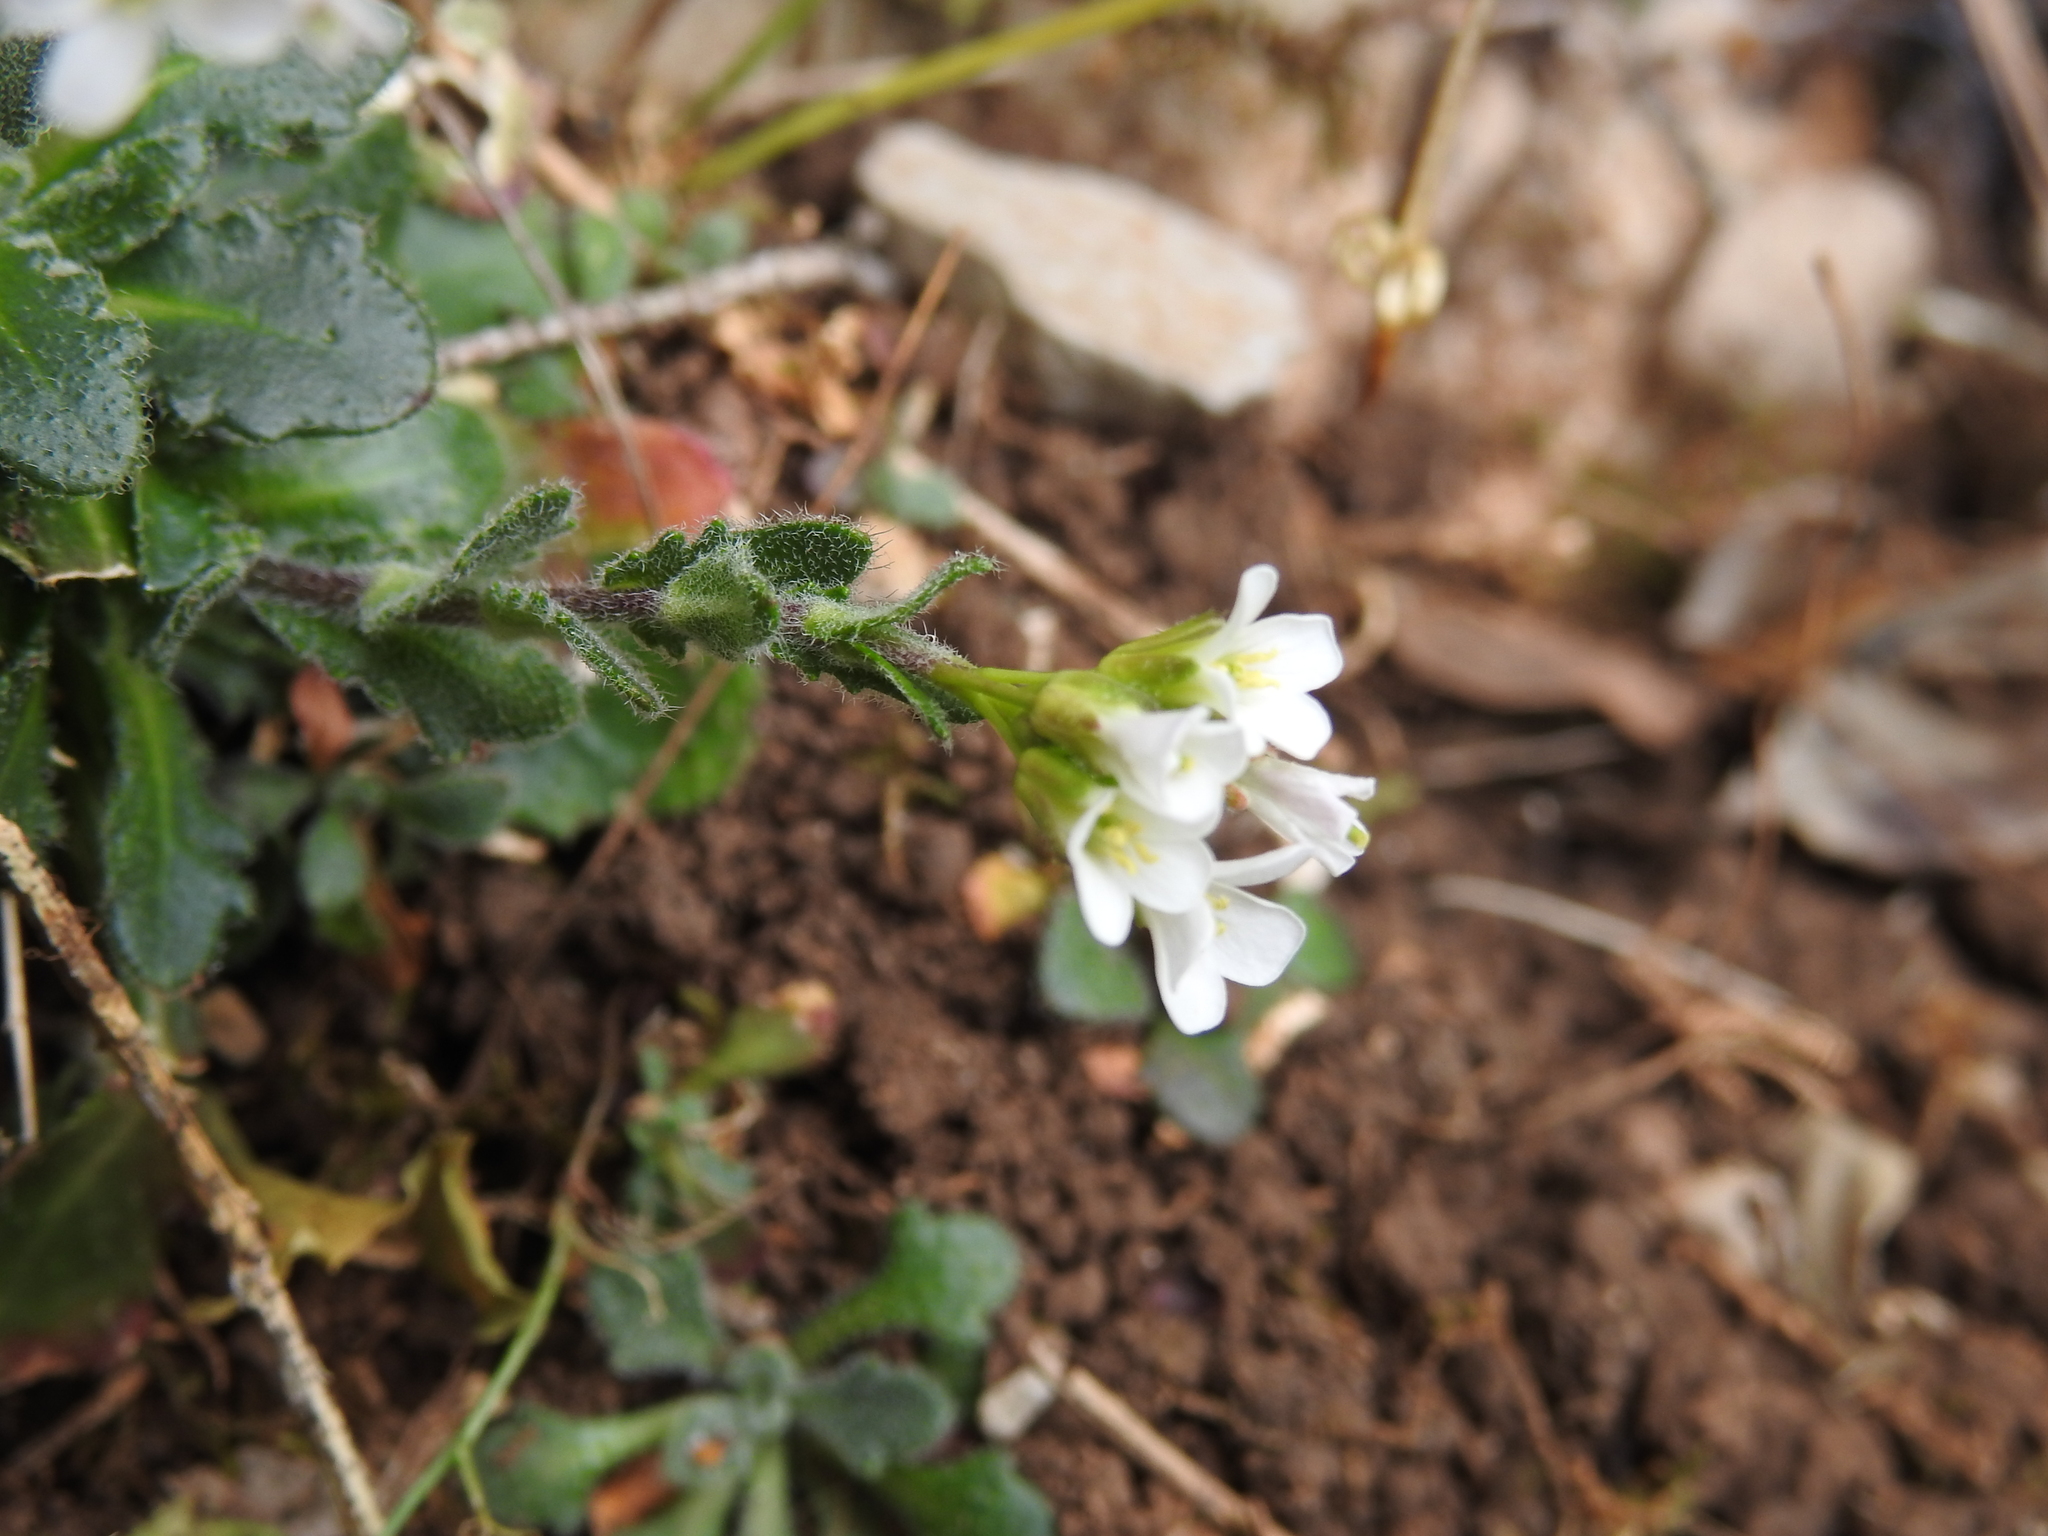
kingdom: Plantae
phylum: Tracheophyta
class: Magnoliopsida
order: Brassicales
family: Brassicaceae
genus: Arabis
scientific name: Arabis collina
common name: Rosy cress
